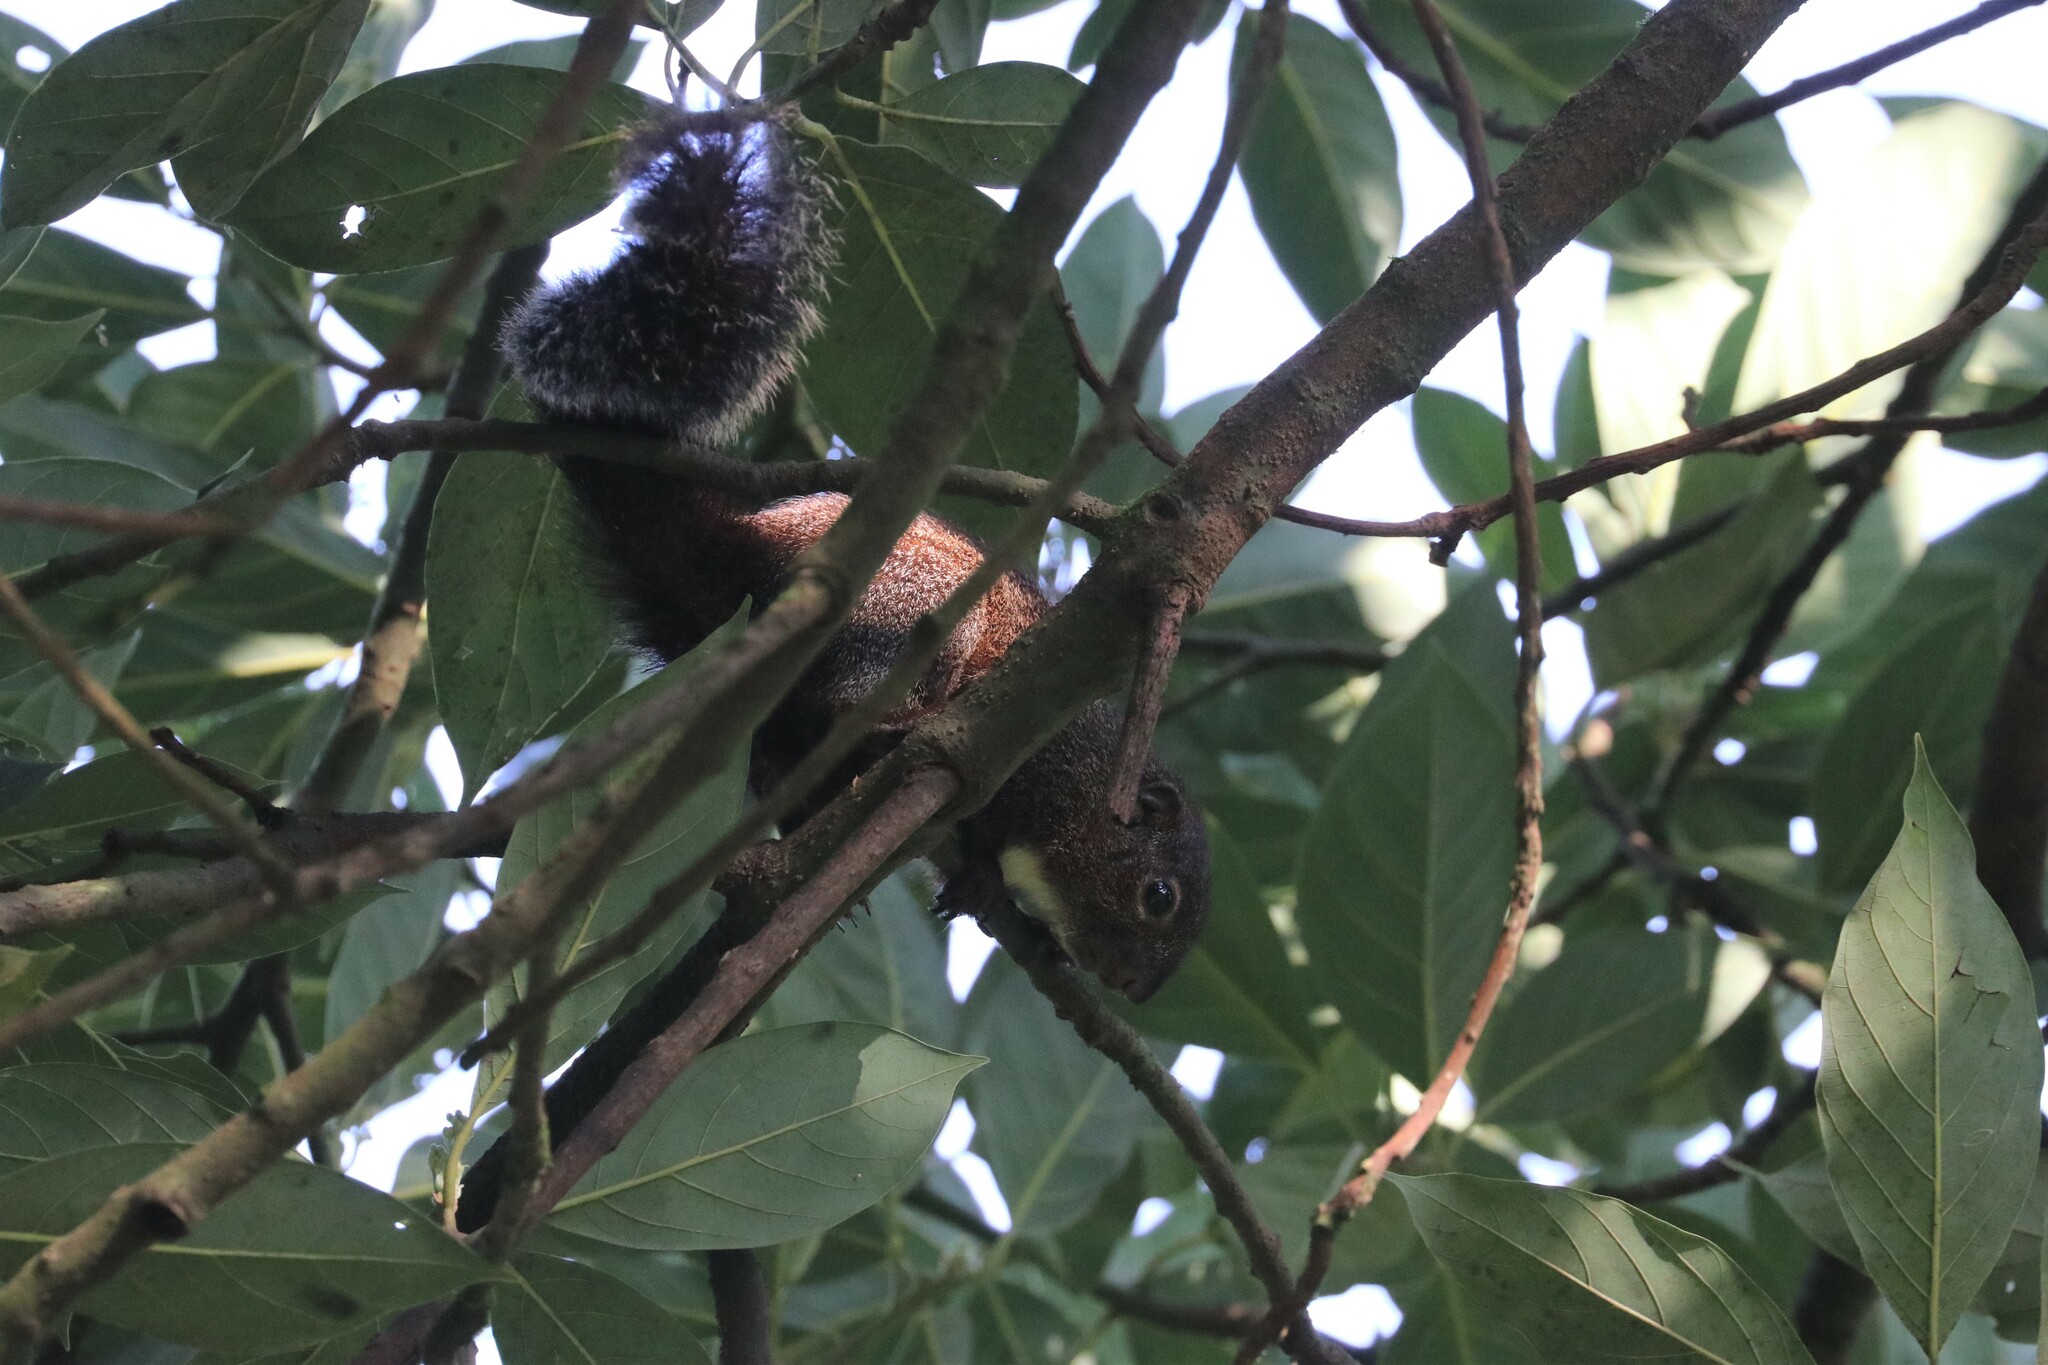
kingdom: Animalia
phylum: Chordata
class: Mammalia
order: Rodentia
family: Sciuridae
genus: Heliosciurus
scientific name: Heliosciurus gambianus
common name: Gambian sun squirrel
